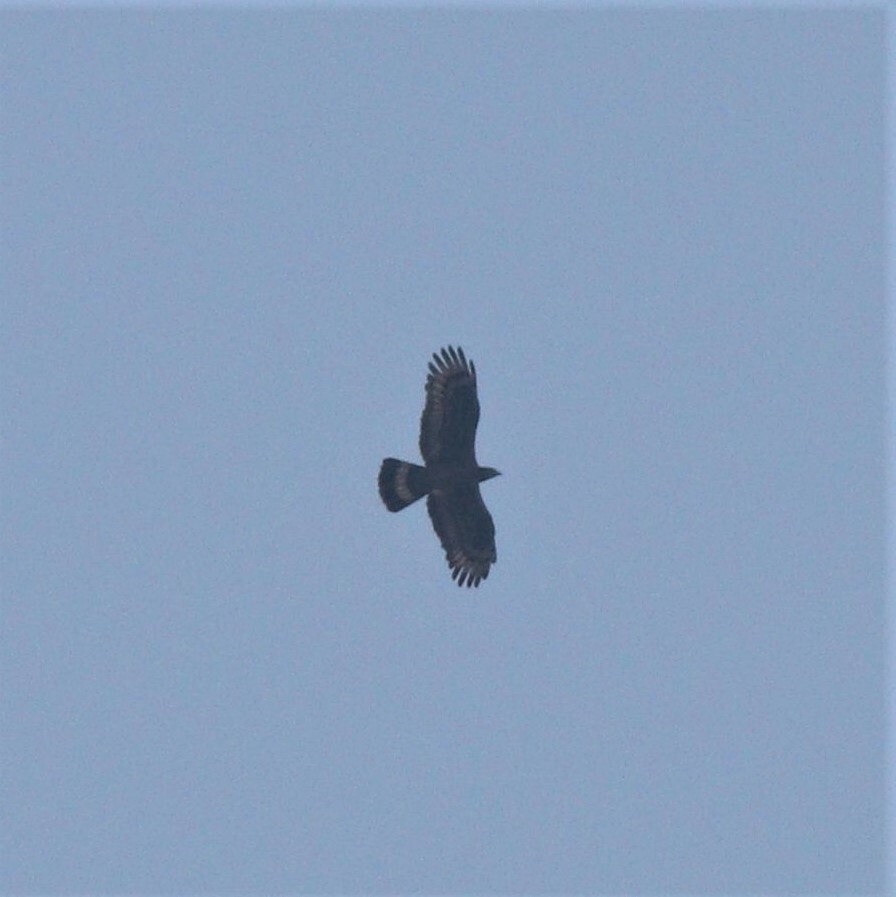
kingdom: Animalia
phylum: Chordata
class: Aves
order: Accipitriformes
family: Accipitridae
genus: Pernis
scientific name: Pernis ptilorhynchus
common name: Crested honey buzzard
